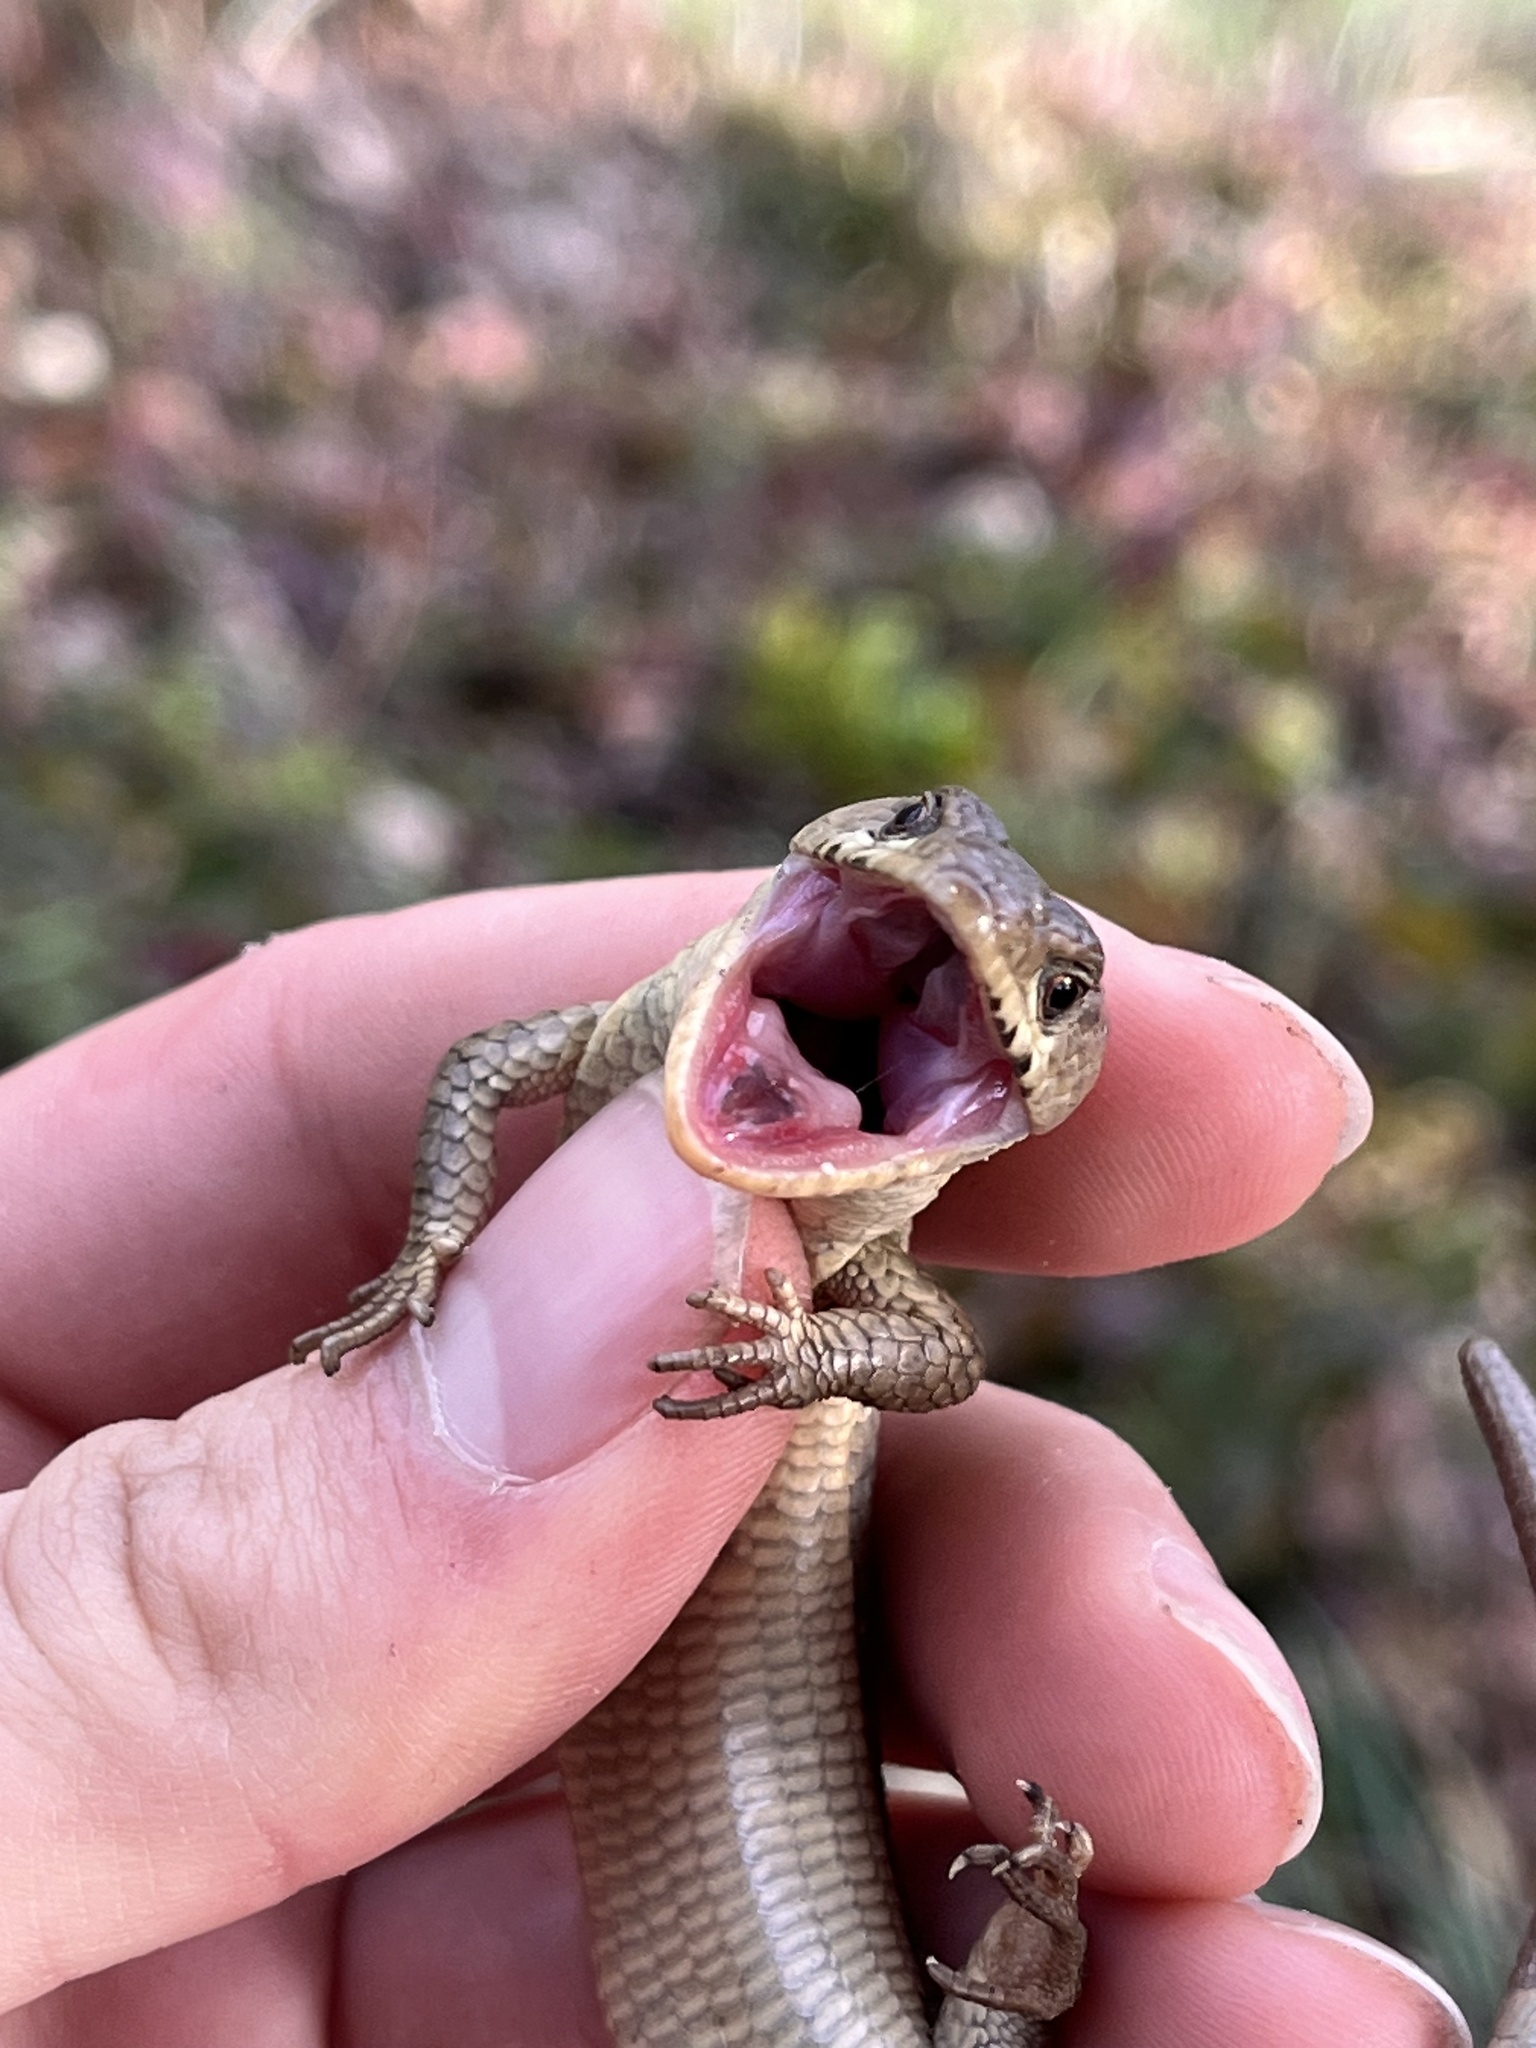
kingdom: Animalia
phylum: Chordata
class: Squamata
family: Anguidae
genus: Elgaria
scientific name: Elgaria coerulea
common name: Northern alligator lizard
